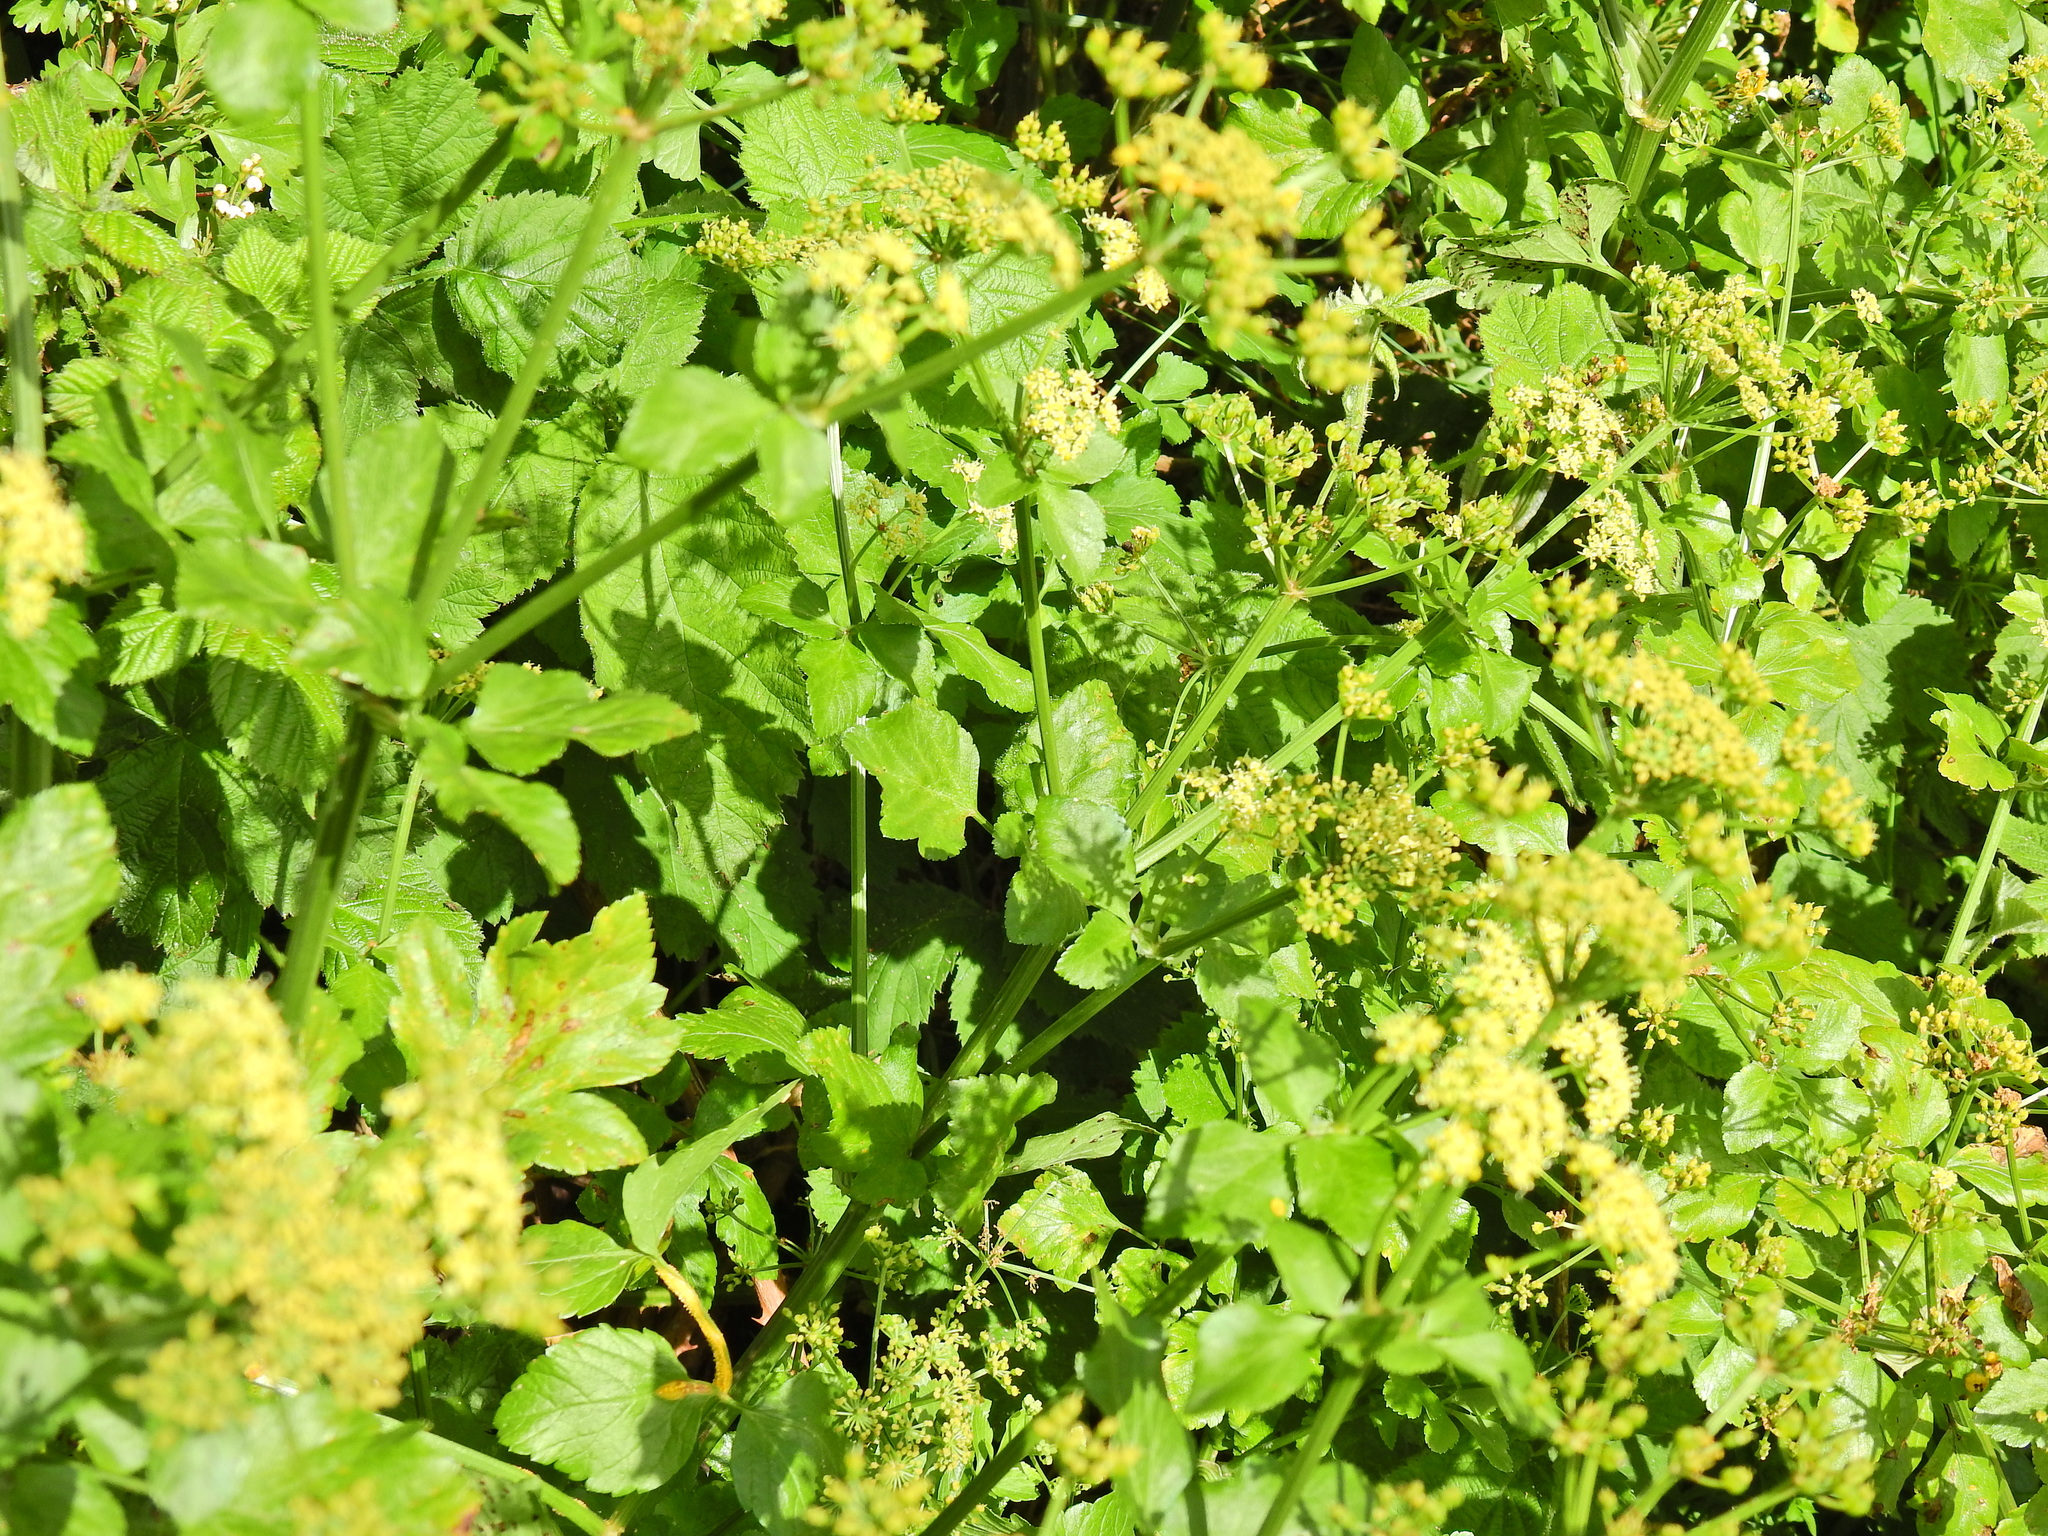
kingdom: Plantae
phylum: Tracheophyta
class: Magnoliopsida
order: Apiales
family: Apiaceae
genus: Smyrnium
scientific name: Smyrnium olusatrum
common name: Alexanders
